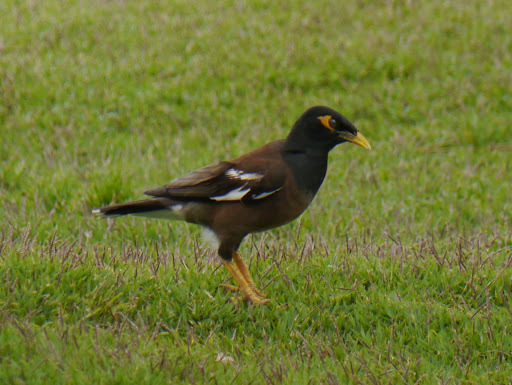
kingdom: Animalia
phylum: Chordata
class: Aves
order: Passeriformes
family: Sturnidae
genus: Acridotheres
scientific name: Acridotheres tristis
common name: Common myna
